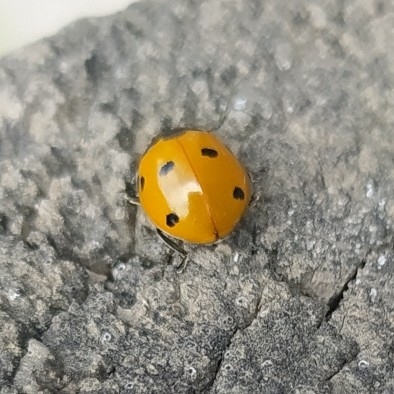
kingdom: Animalia
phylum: Arthropoda
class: Insecta
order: Coleoptera
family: Coccinellidae
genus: Coccinella
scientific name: Coccinella septempunctata
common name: Sevenspotted lady beetle
